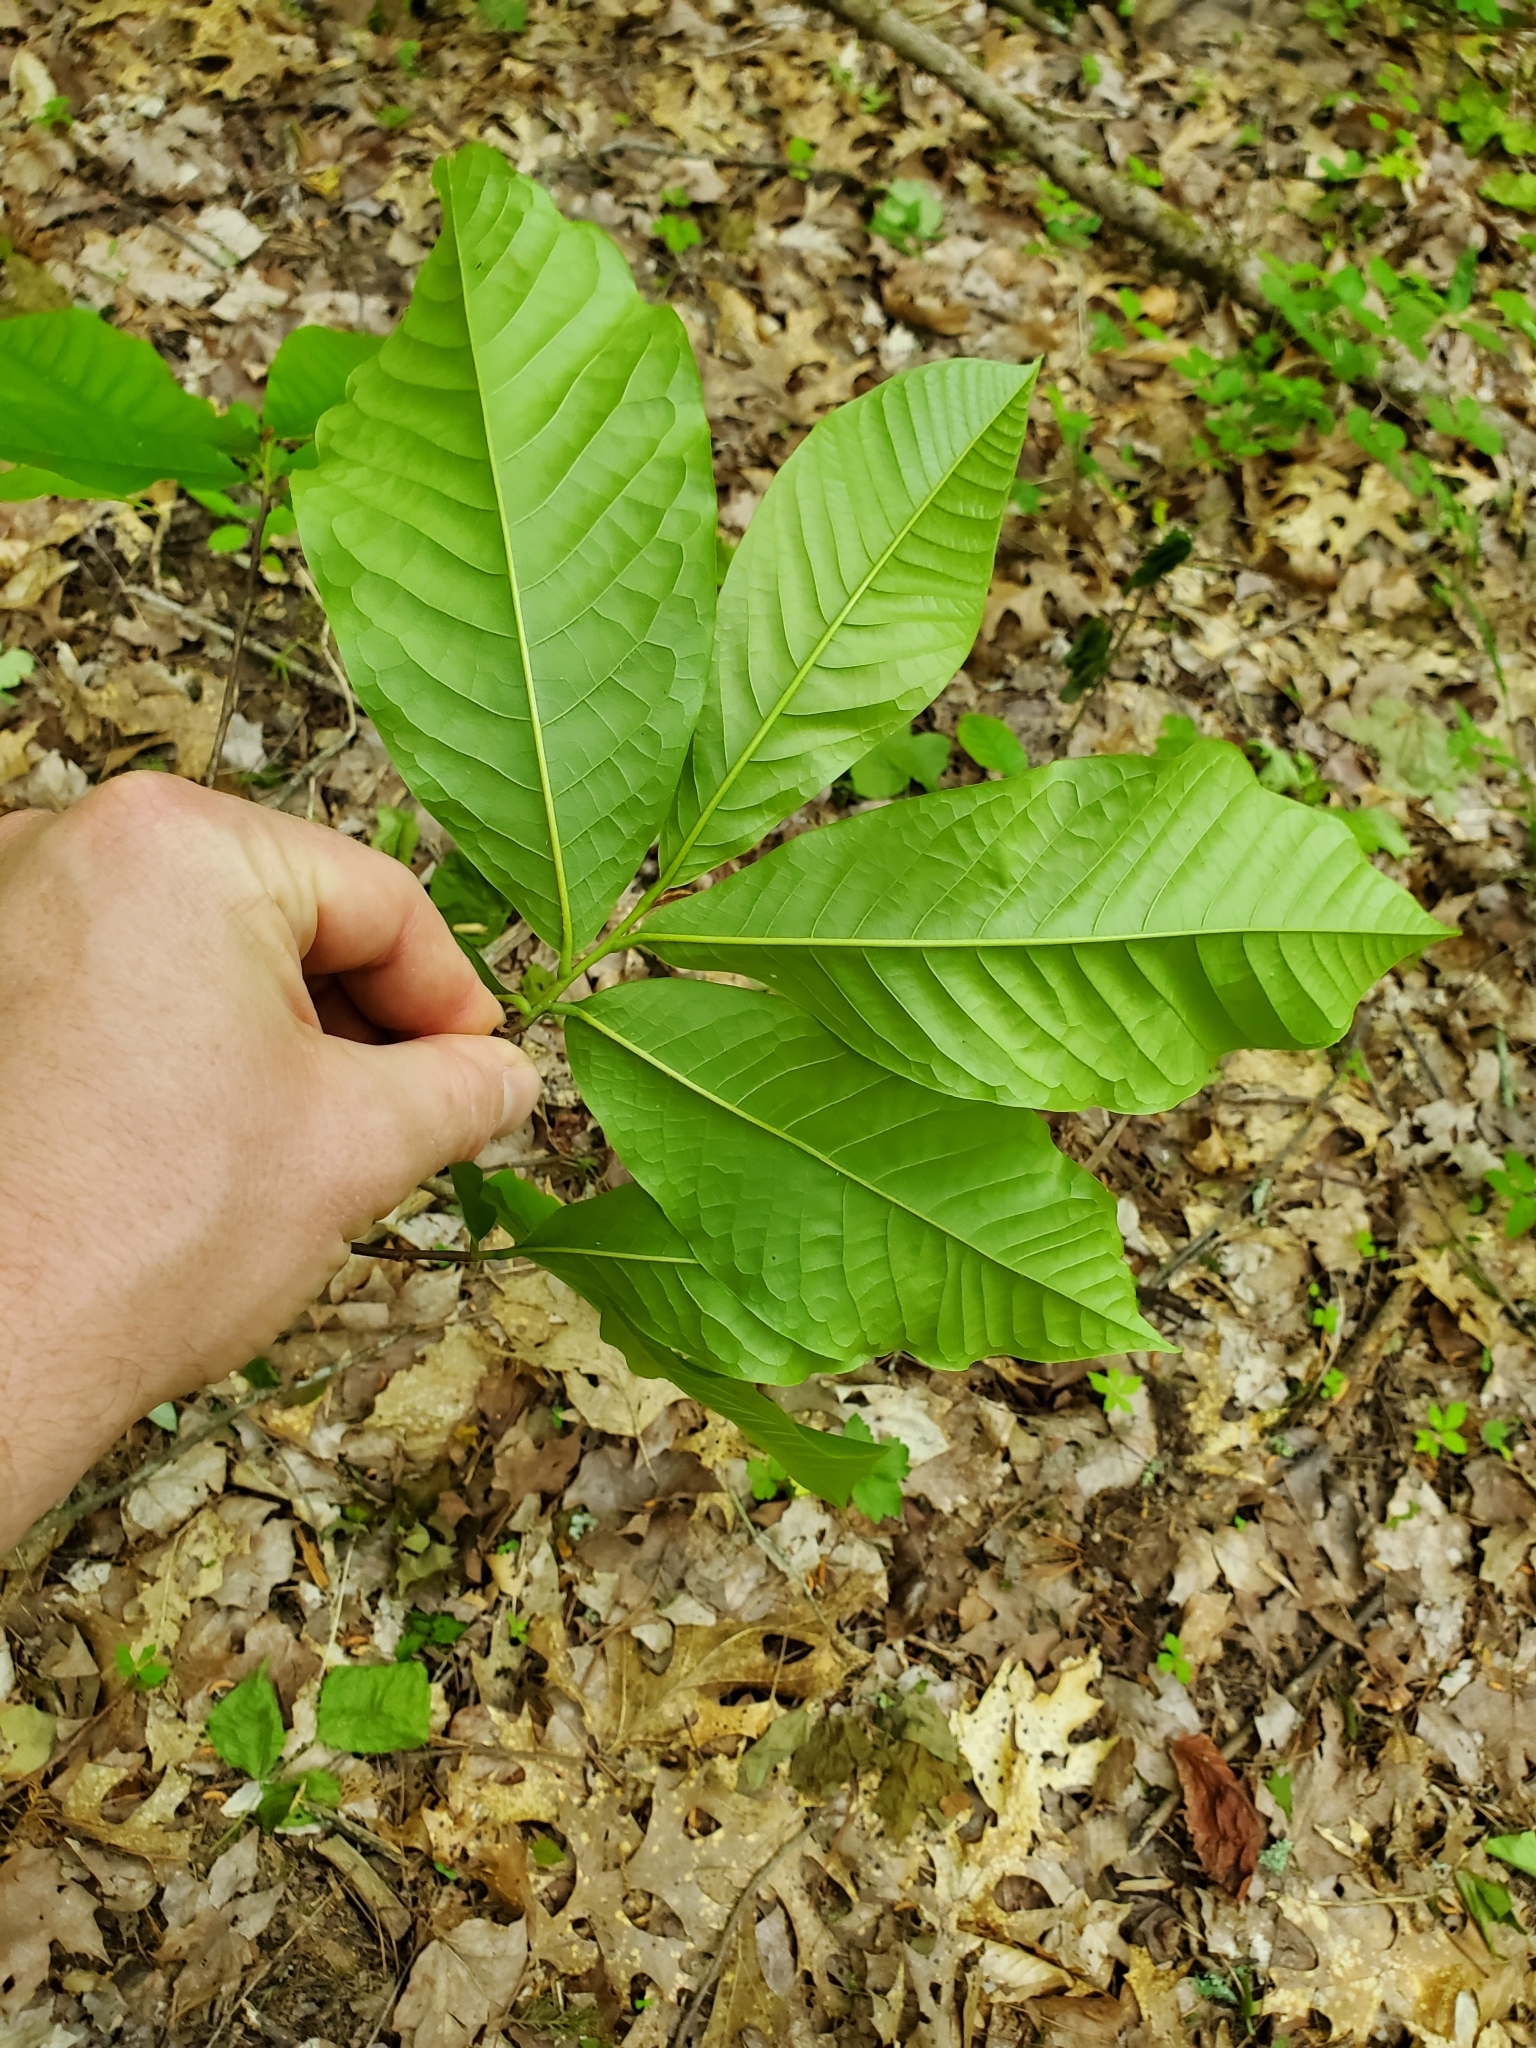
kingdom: Plantae
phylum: Tracheophyta
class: Magnoliopsida
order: Magnoliales
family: Annonaceae
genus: Asimina
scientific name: Asimina triloba
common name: Dog-banana
